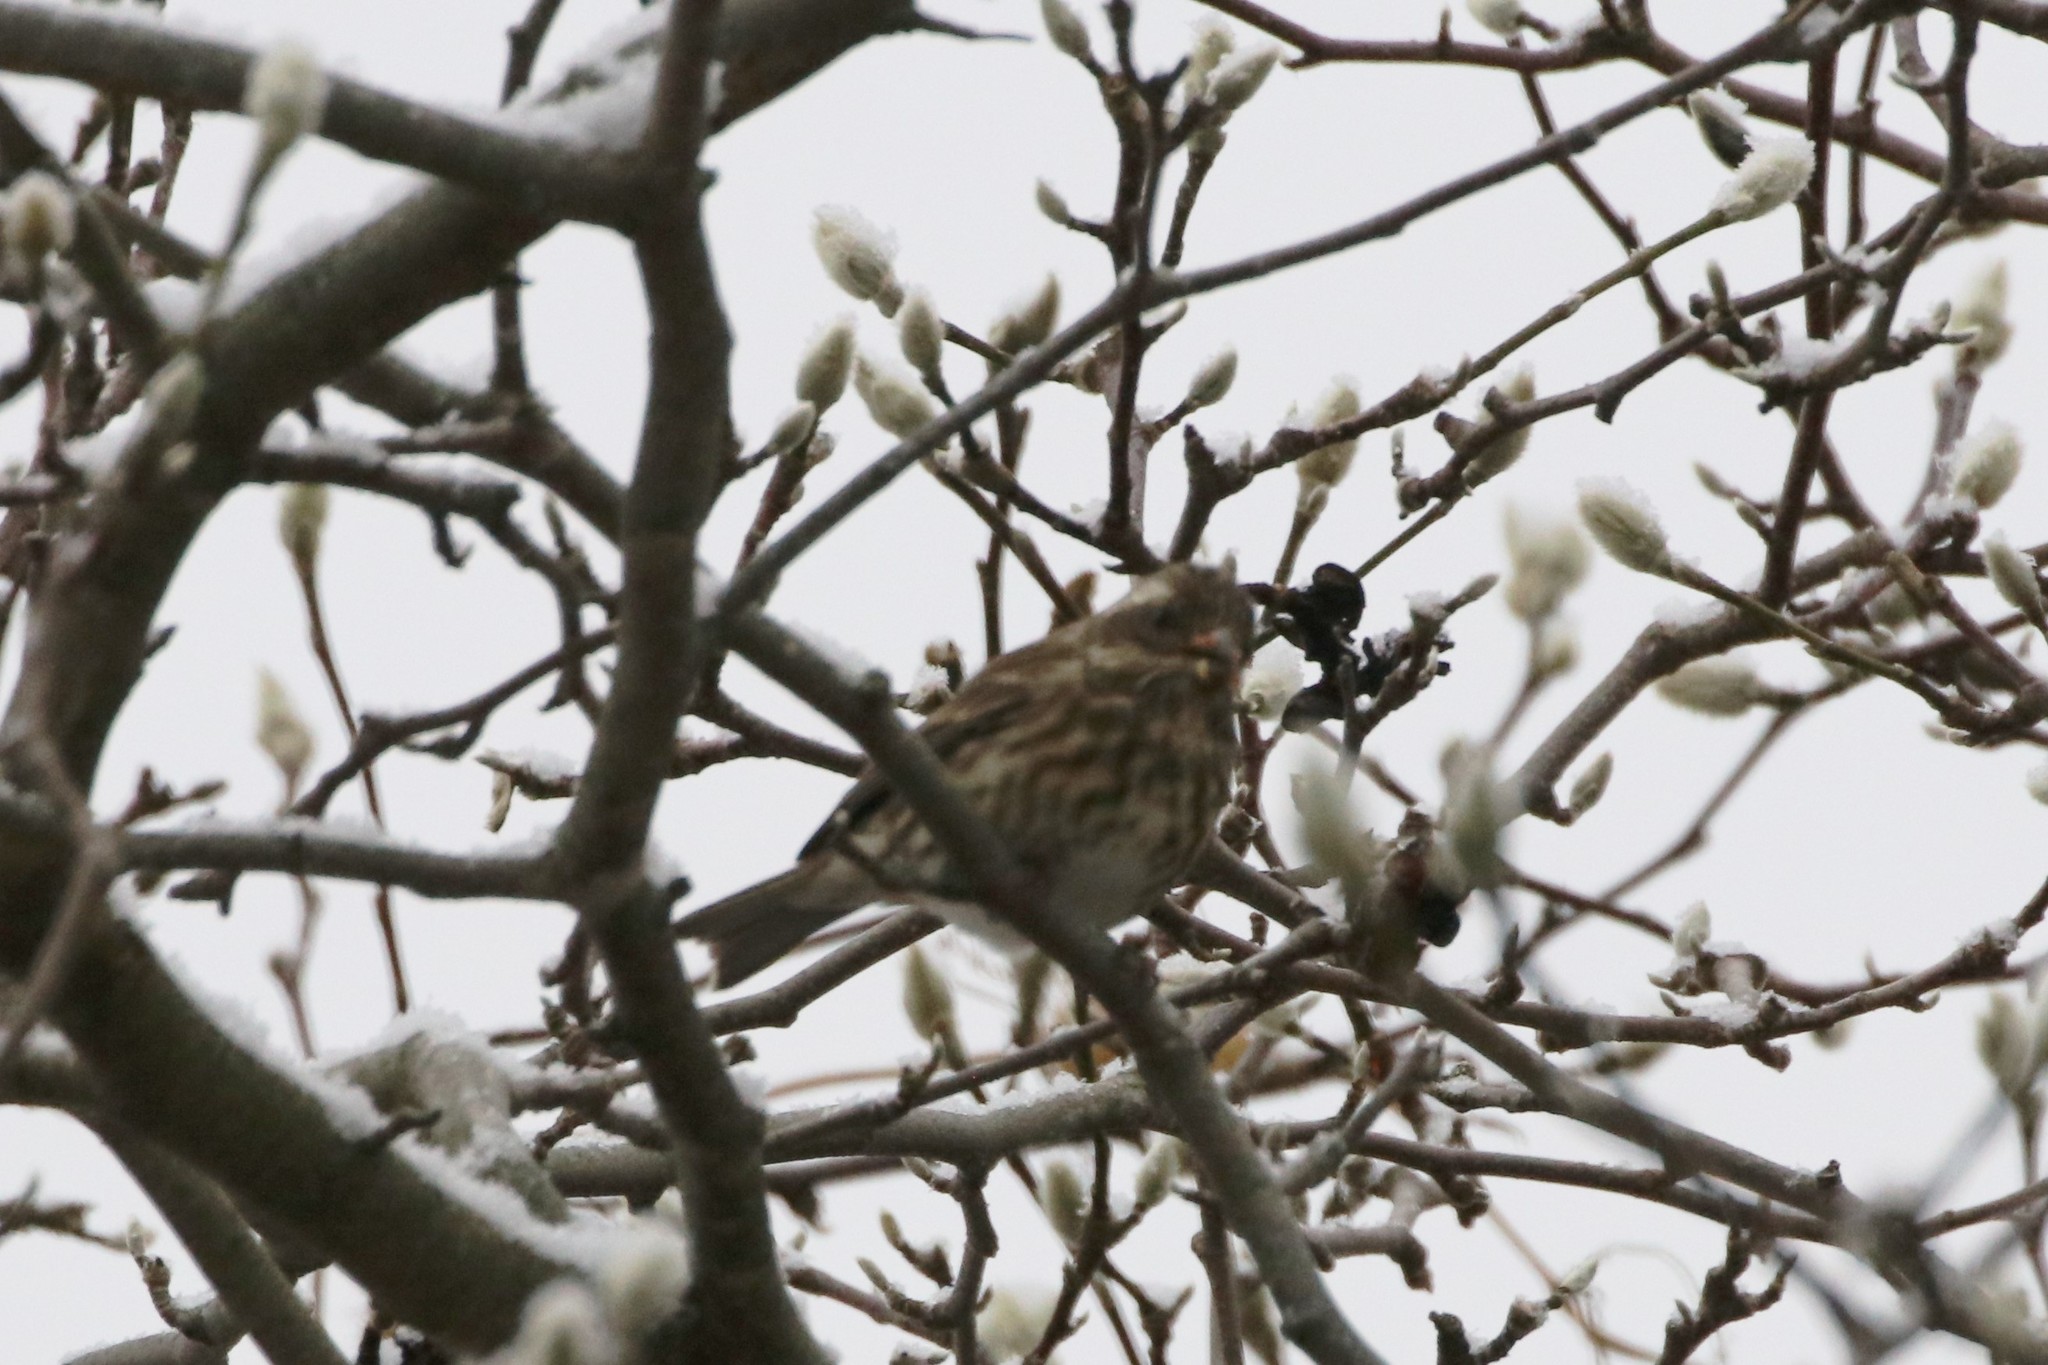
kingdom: Animalia
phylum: Chordata
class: Aves
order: Passeriformes
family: Fringillidae
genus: Haemorhous
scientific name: Haemorhous purpureus
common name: Purple finch
